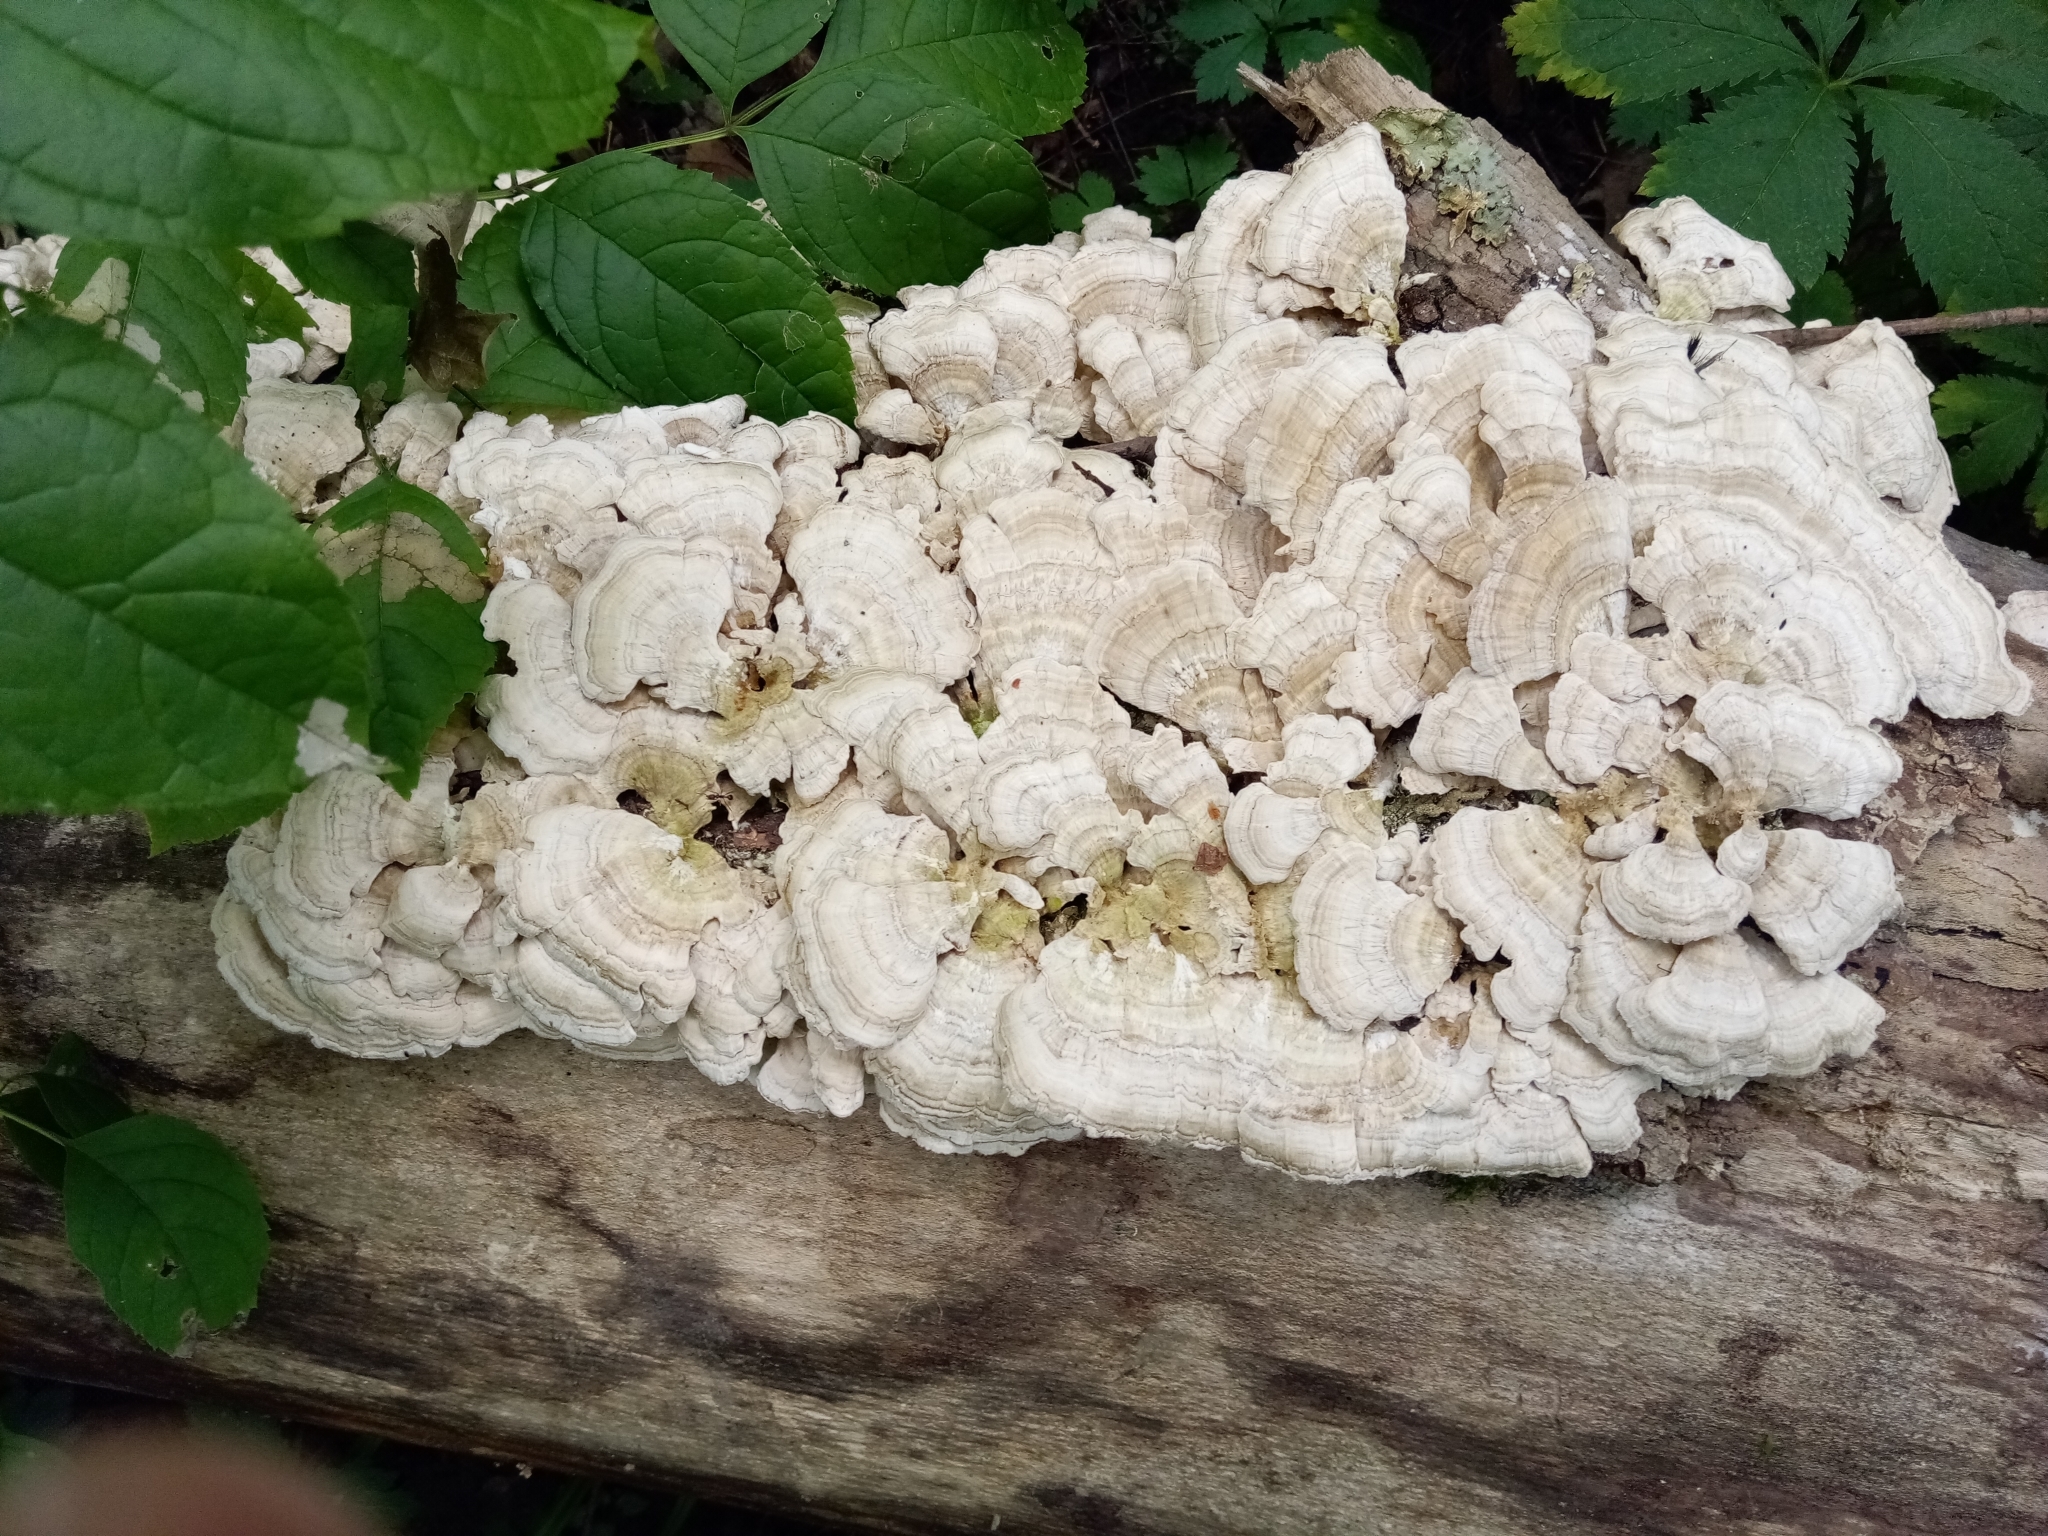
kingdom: Fungi
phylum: Basidiomycota
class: Agaricomycetes
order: Hymenochaetales
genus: Trichaptum
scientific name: Trichaptum biforme
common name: Violet-toothed polypore
